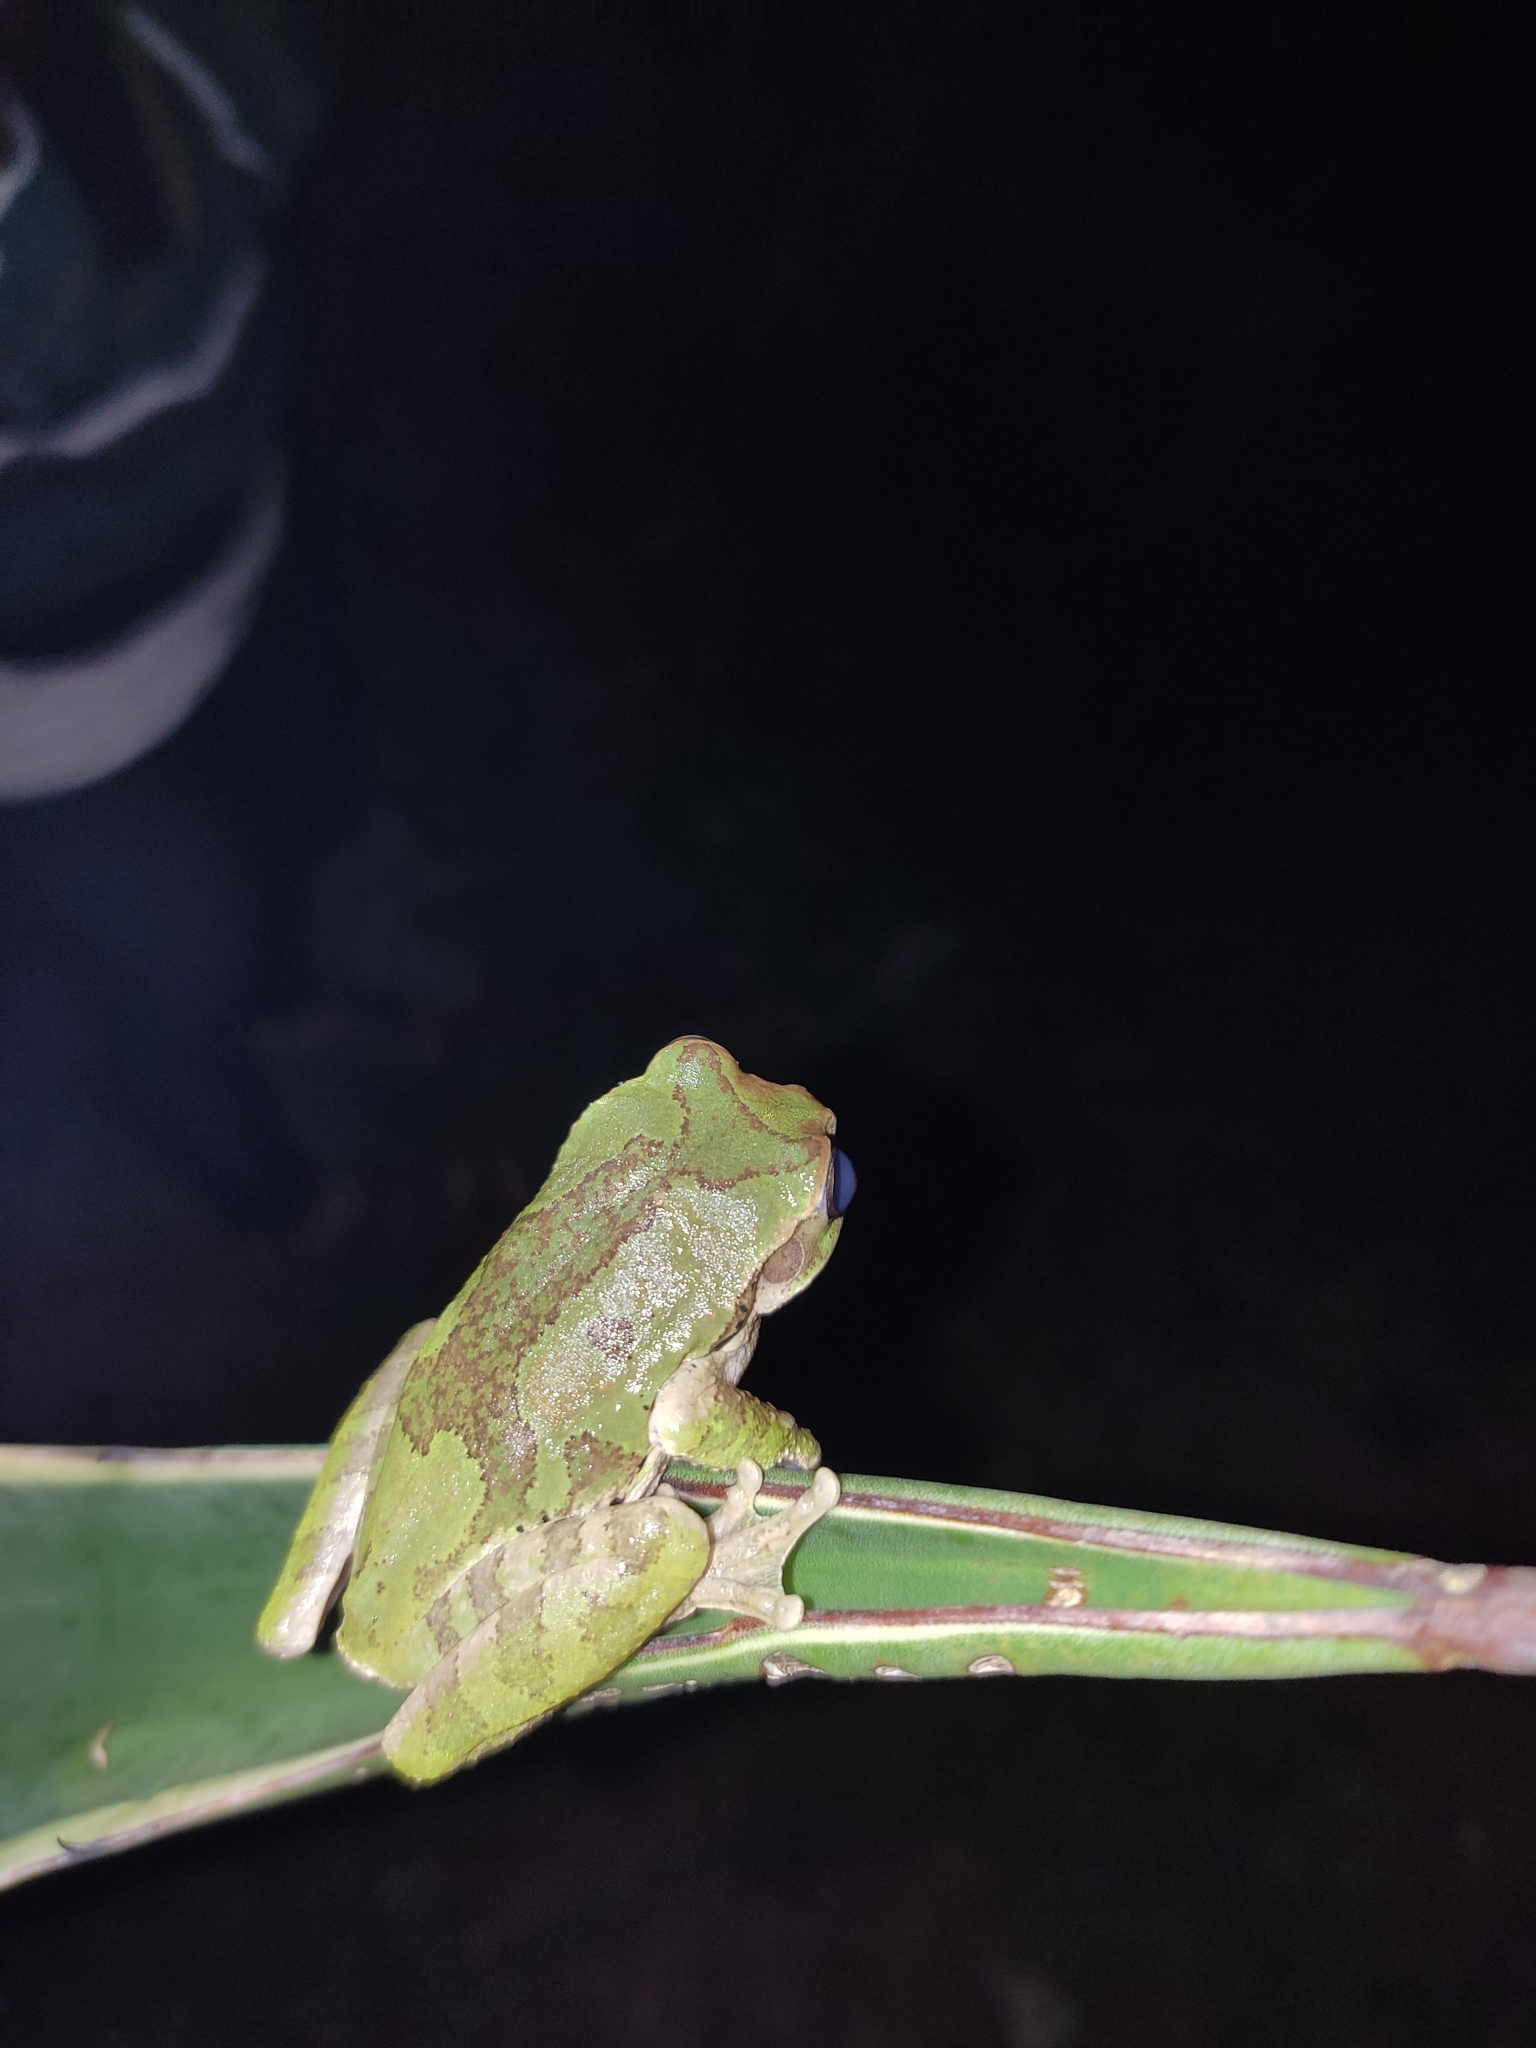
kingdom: Animalia
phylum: Chordata
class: Amphibia
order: Anura
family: Hylidae
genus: Smilisca
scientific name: Smilisca baudinii
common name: Mexican smilisca
